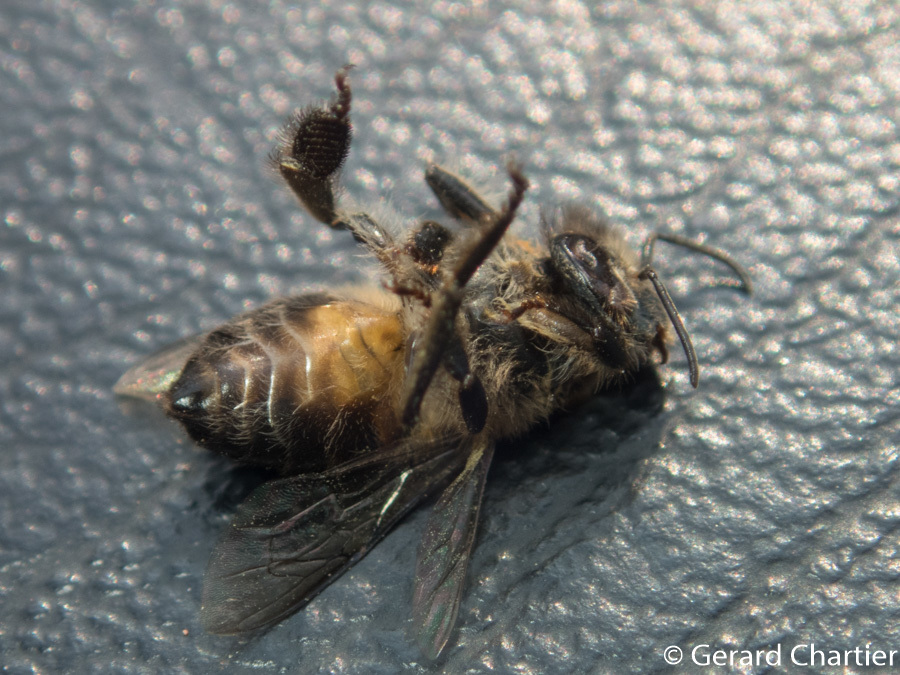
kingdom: Animalia
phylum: Arthropoda
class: Insecta
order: Hymenoptera
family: Apidae
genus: Apis
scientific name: Apis cerana
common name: Honey bee
